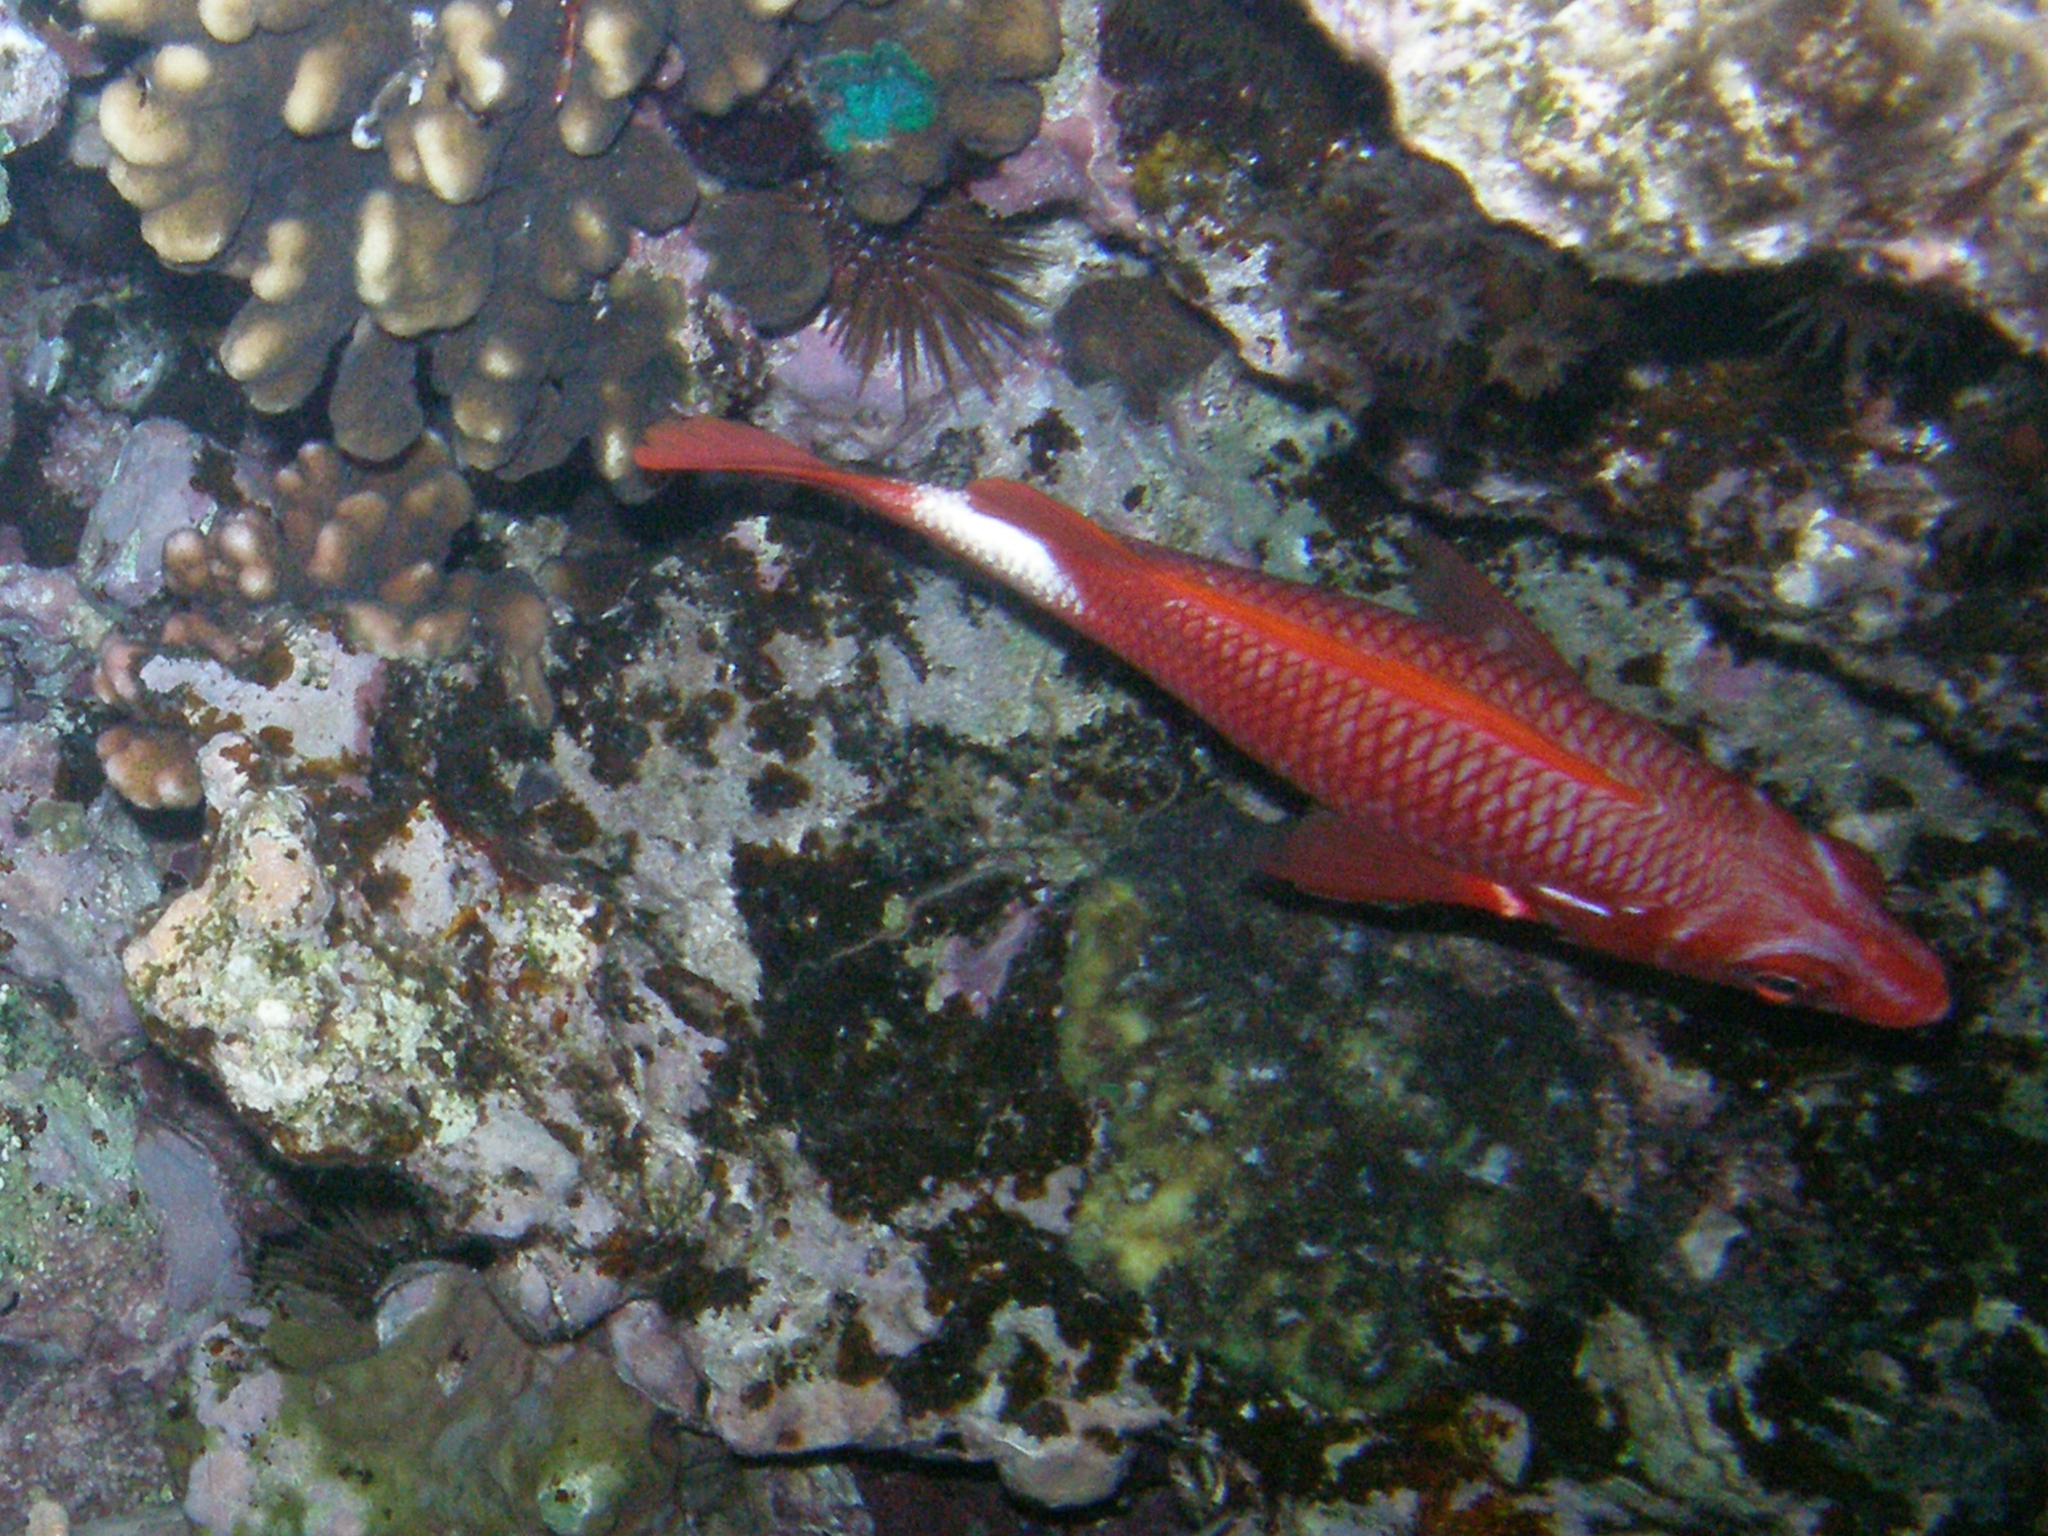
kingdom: Animalia
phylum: Chordata
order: Beryciformes
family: Holocentridae
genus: Sargocentron
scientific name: Sargocentron caudimaculatum
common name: Fanfin soldier
